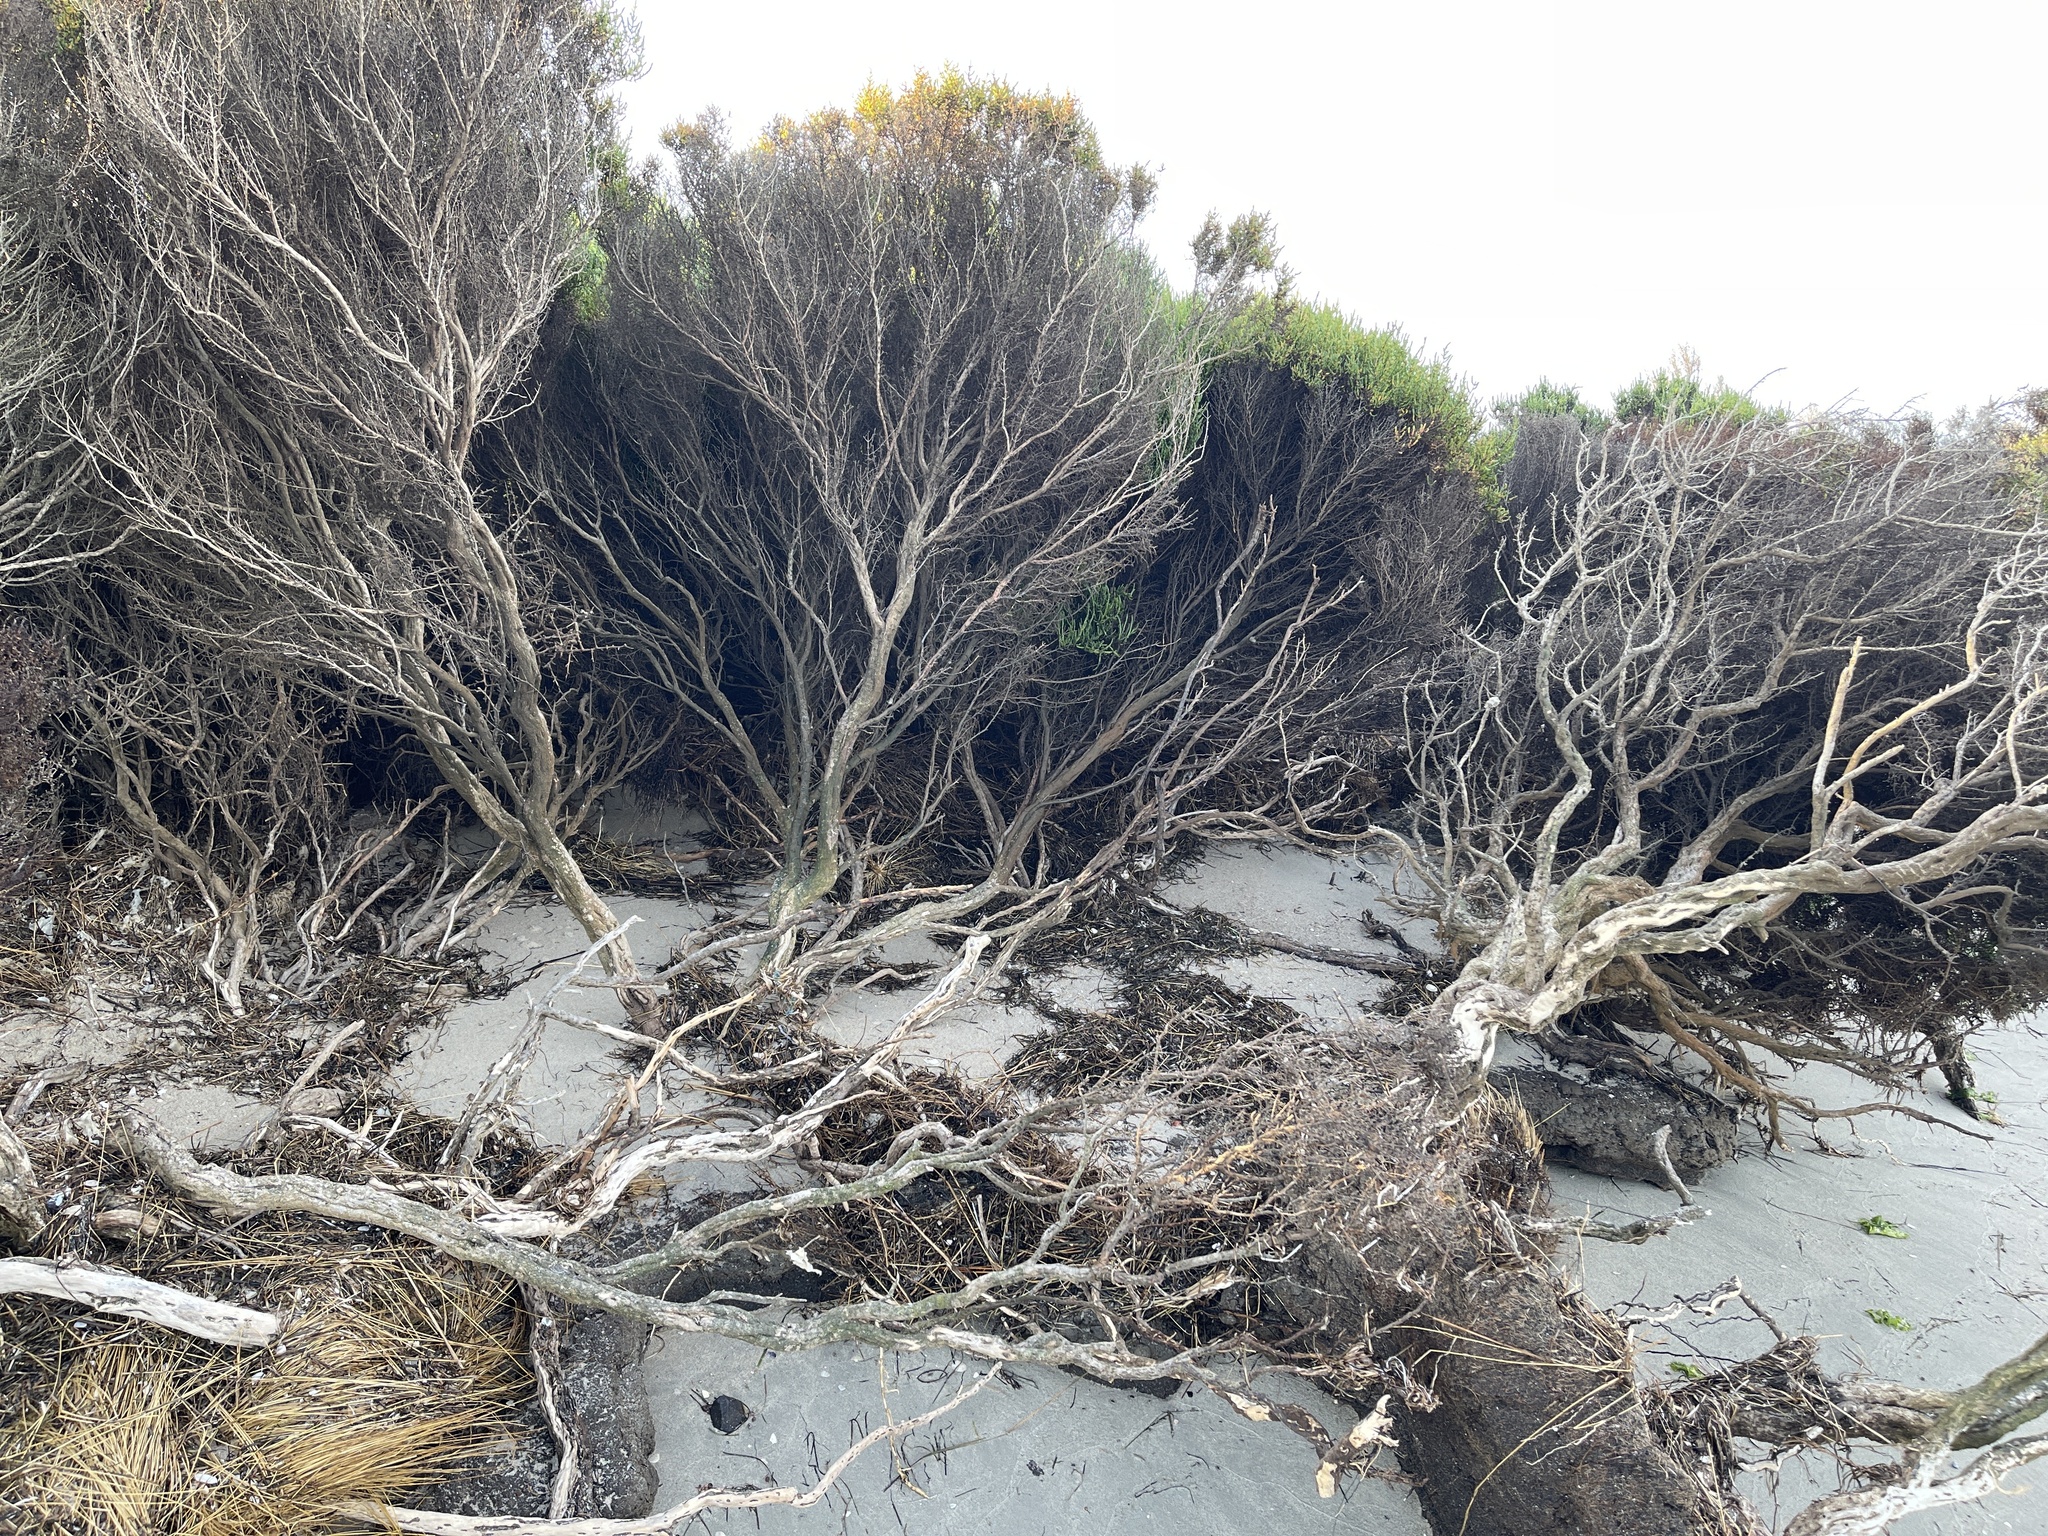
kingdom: Plantae
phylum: Tracheophyta
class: Magnoliopsida
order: Caryophyllales
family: Amaranthaceae
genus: Tecticornia
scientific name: Tecticornia arbuscula
